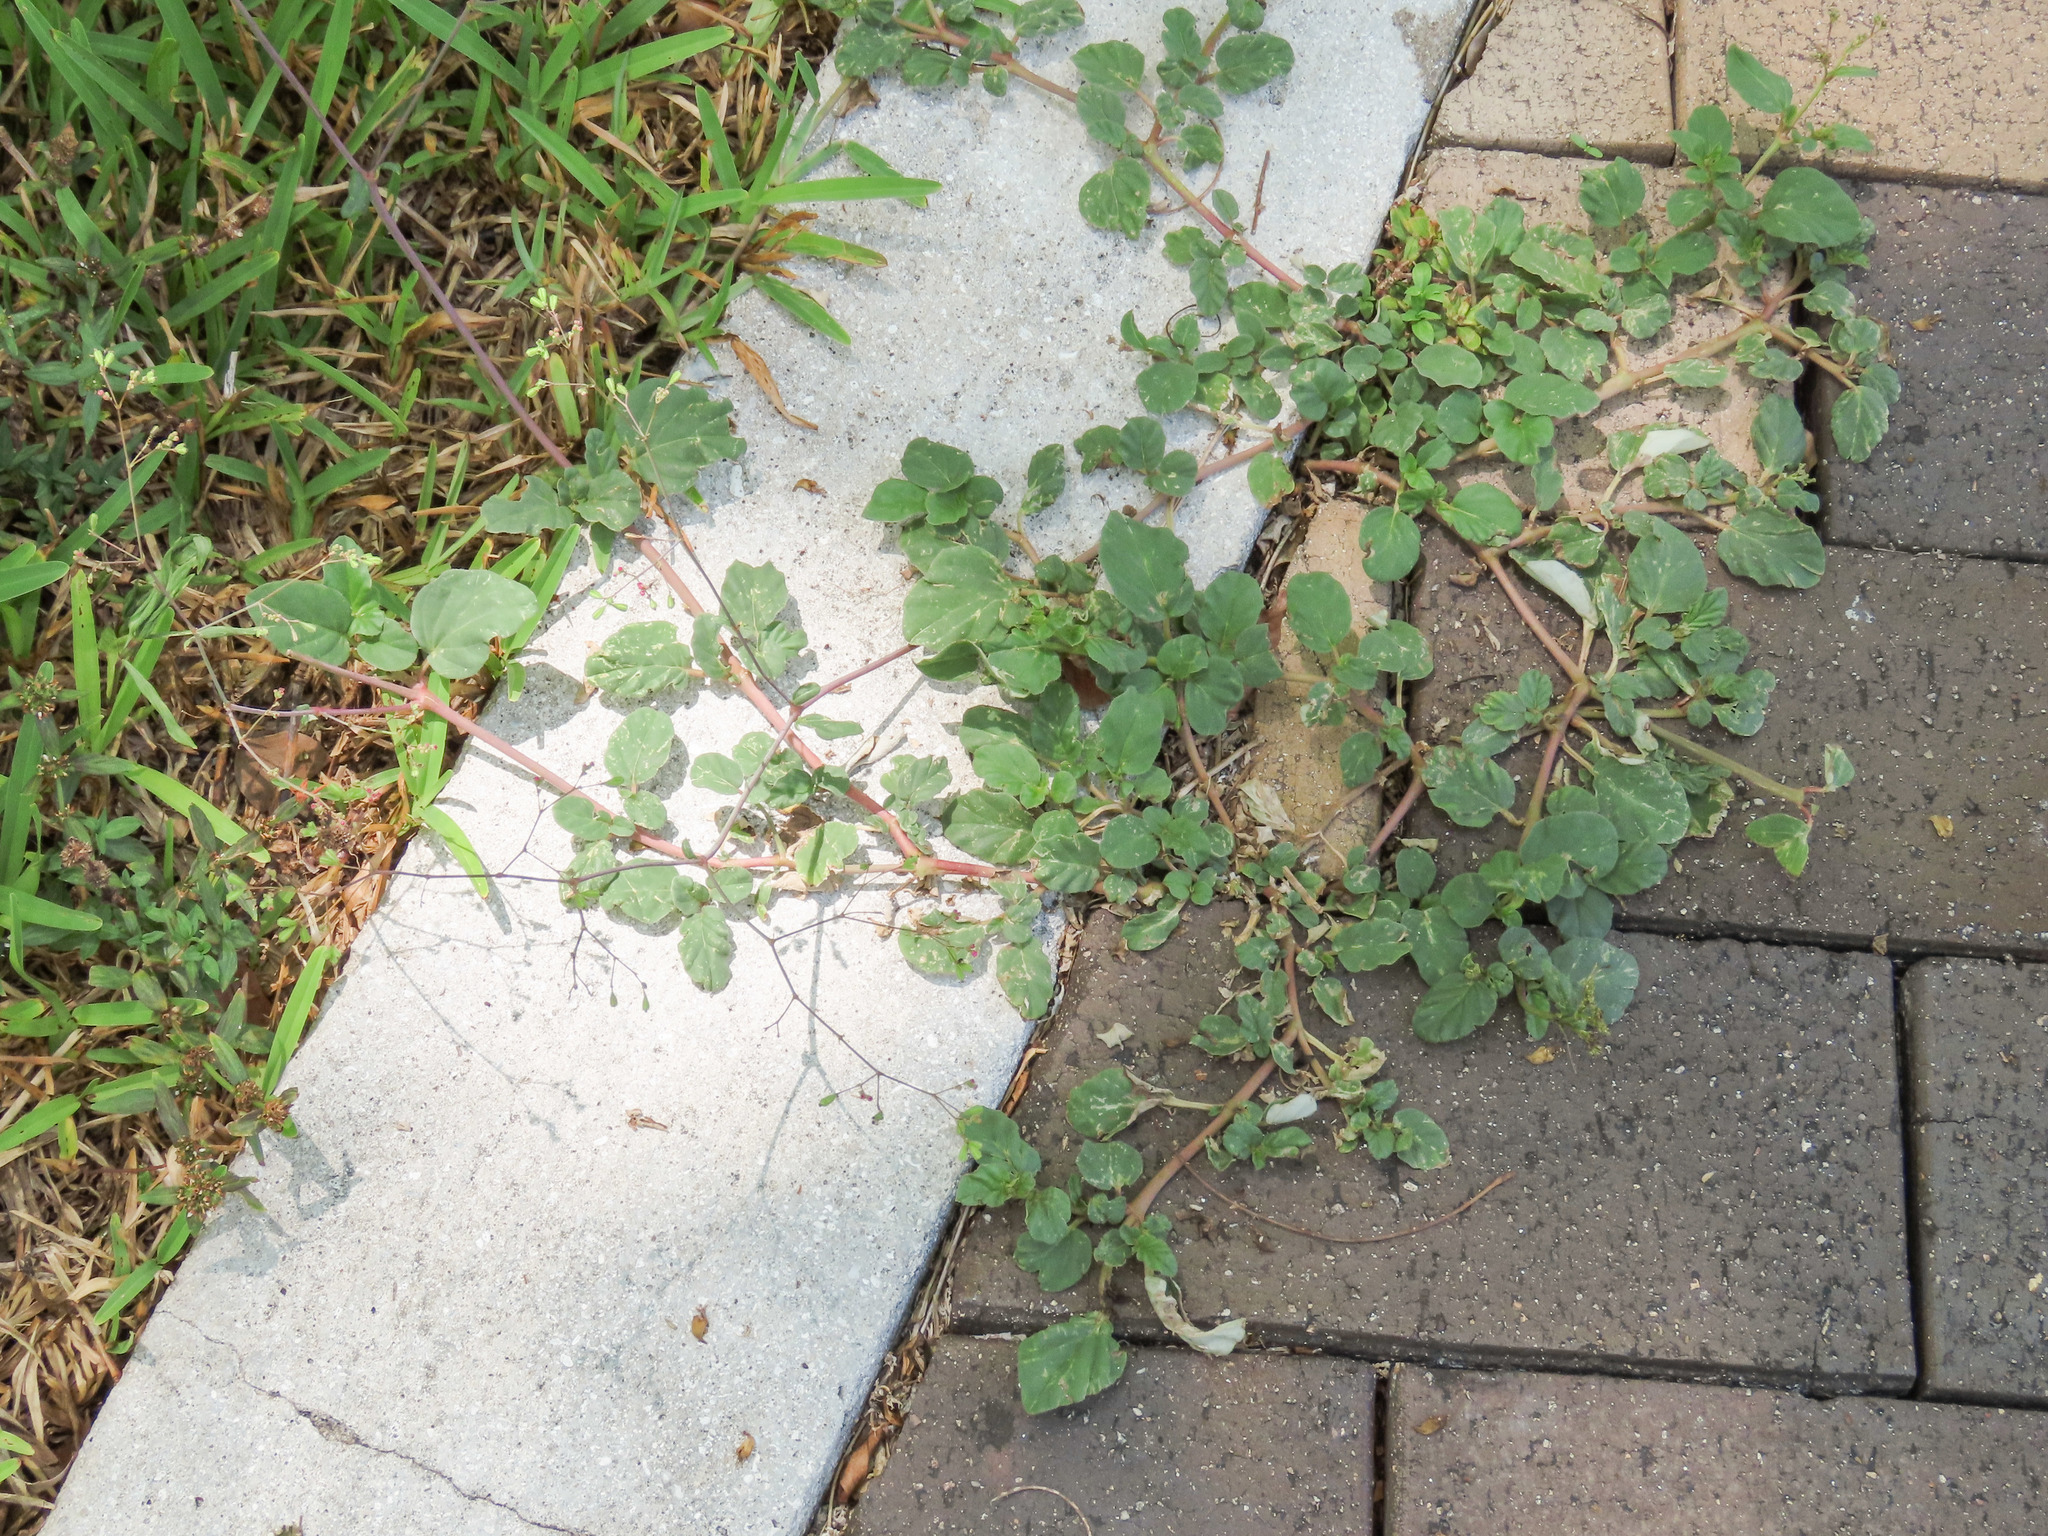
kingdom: Plantae
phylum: Tracheophyta
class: Magnoliopsida
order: Caryophyllales
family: Nyctaginaceae
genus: Boerhavia
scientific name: Boerhavia diffusa
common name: Red spiderling
